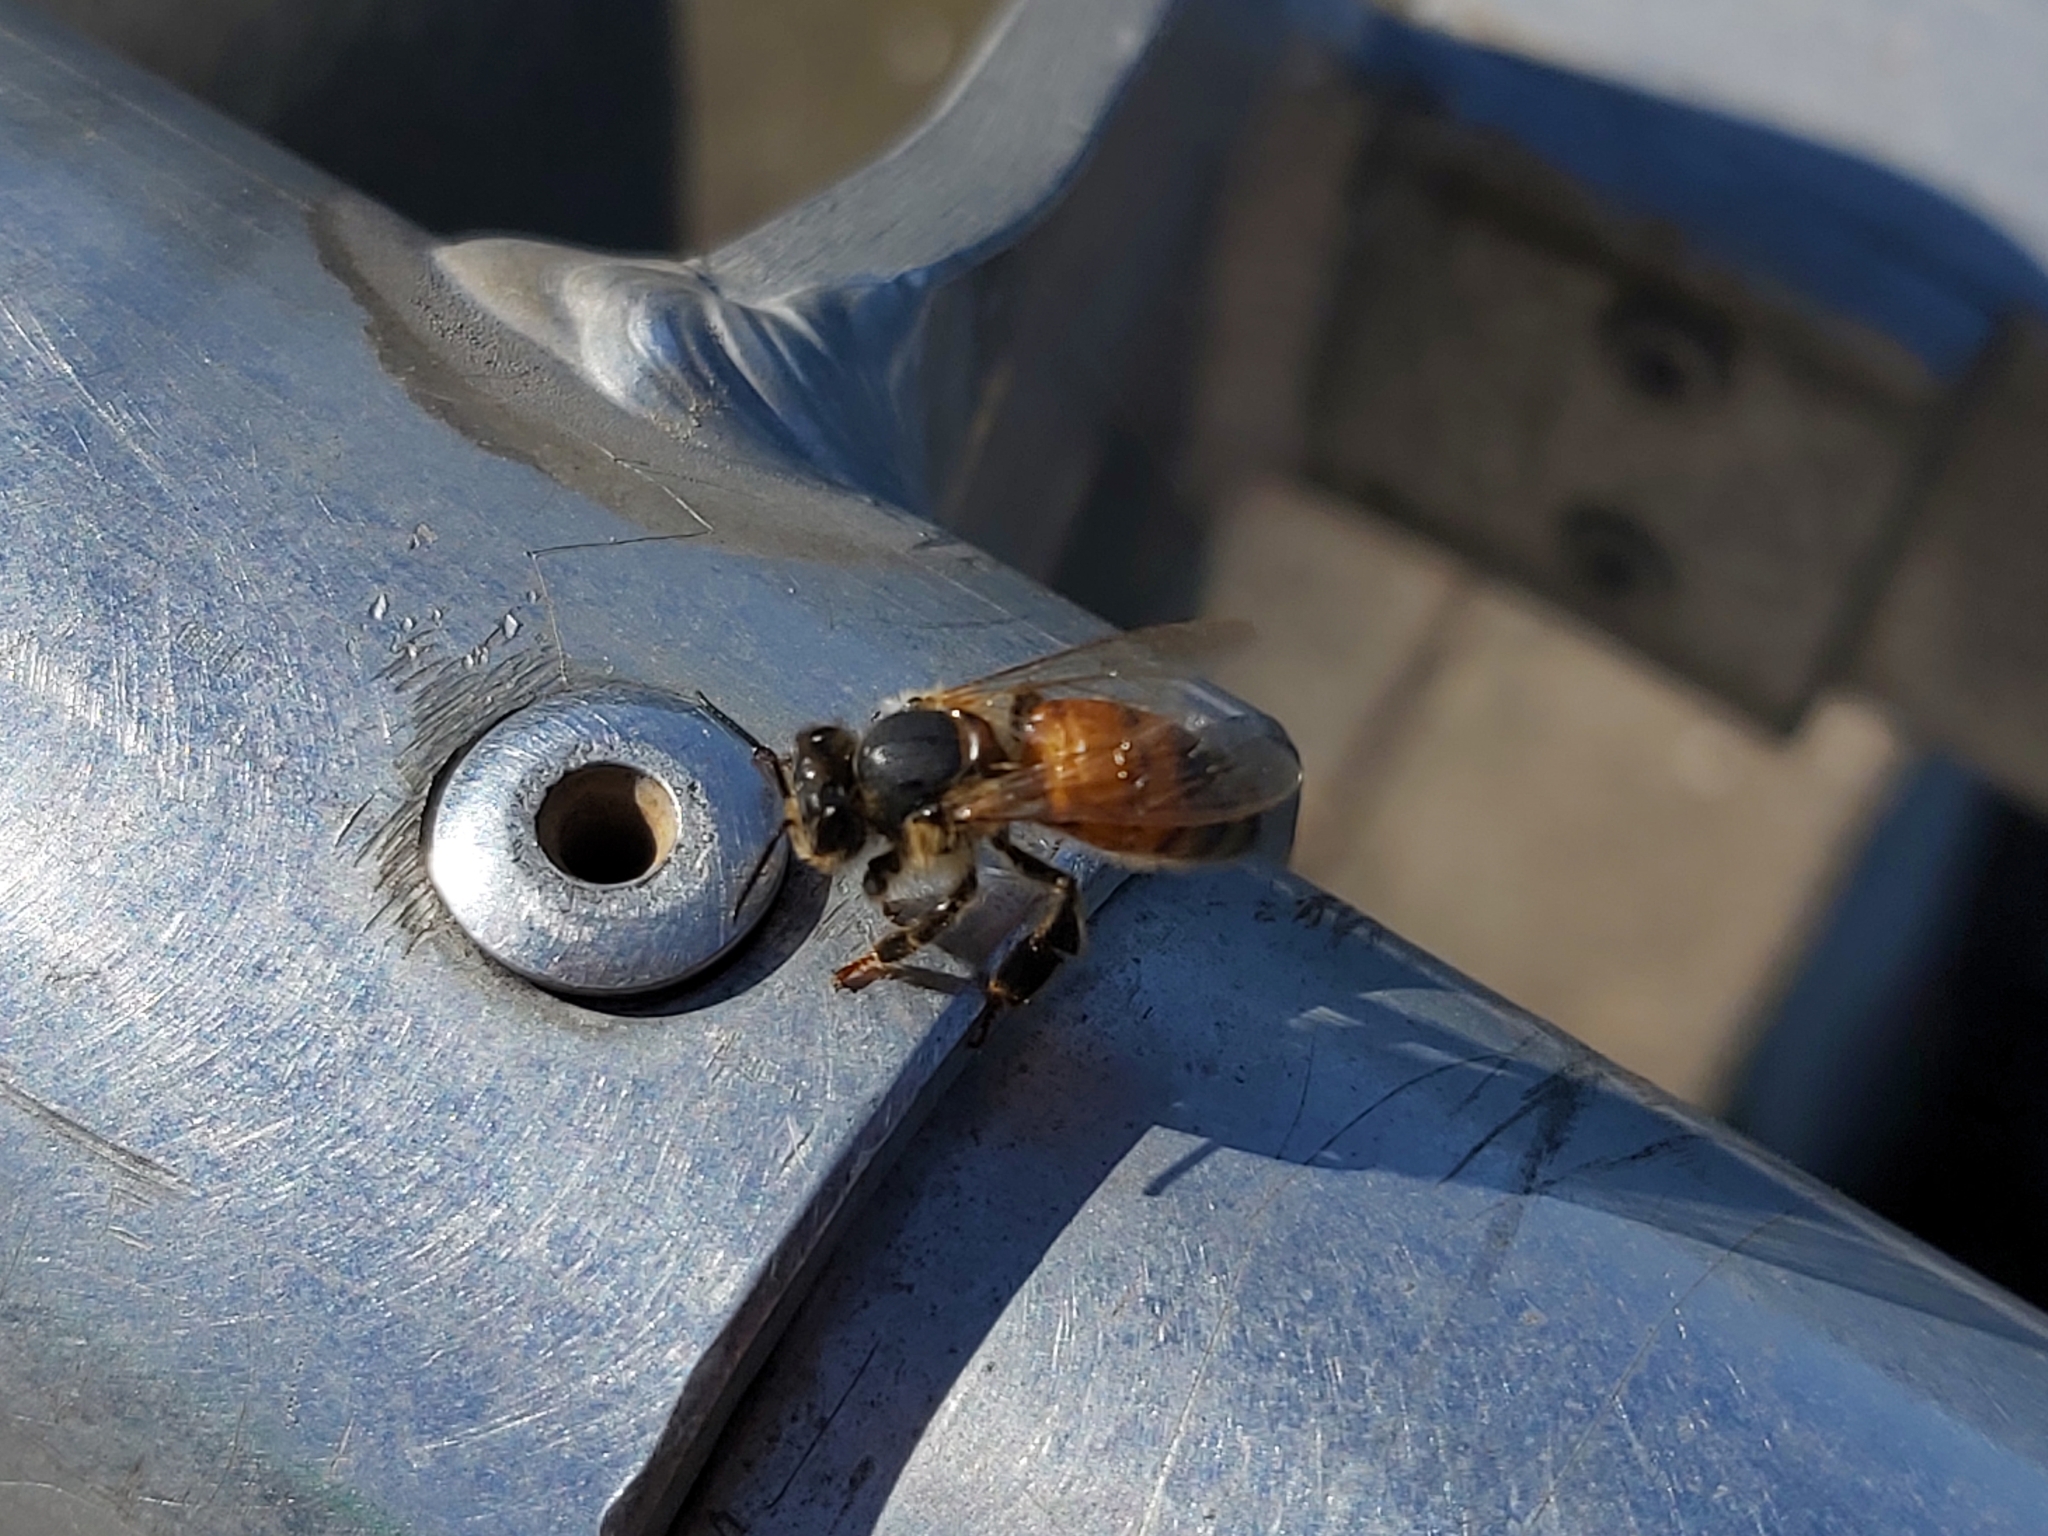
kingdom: Animalia
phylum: Arthropoda
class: Insecta
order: Hymenoptera
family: Apidae
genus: Apis
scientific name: Apis mellifera
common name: Honey bee
